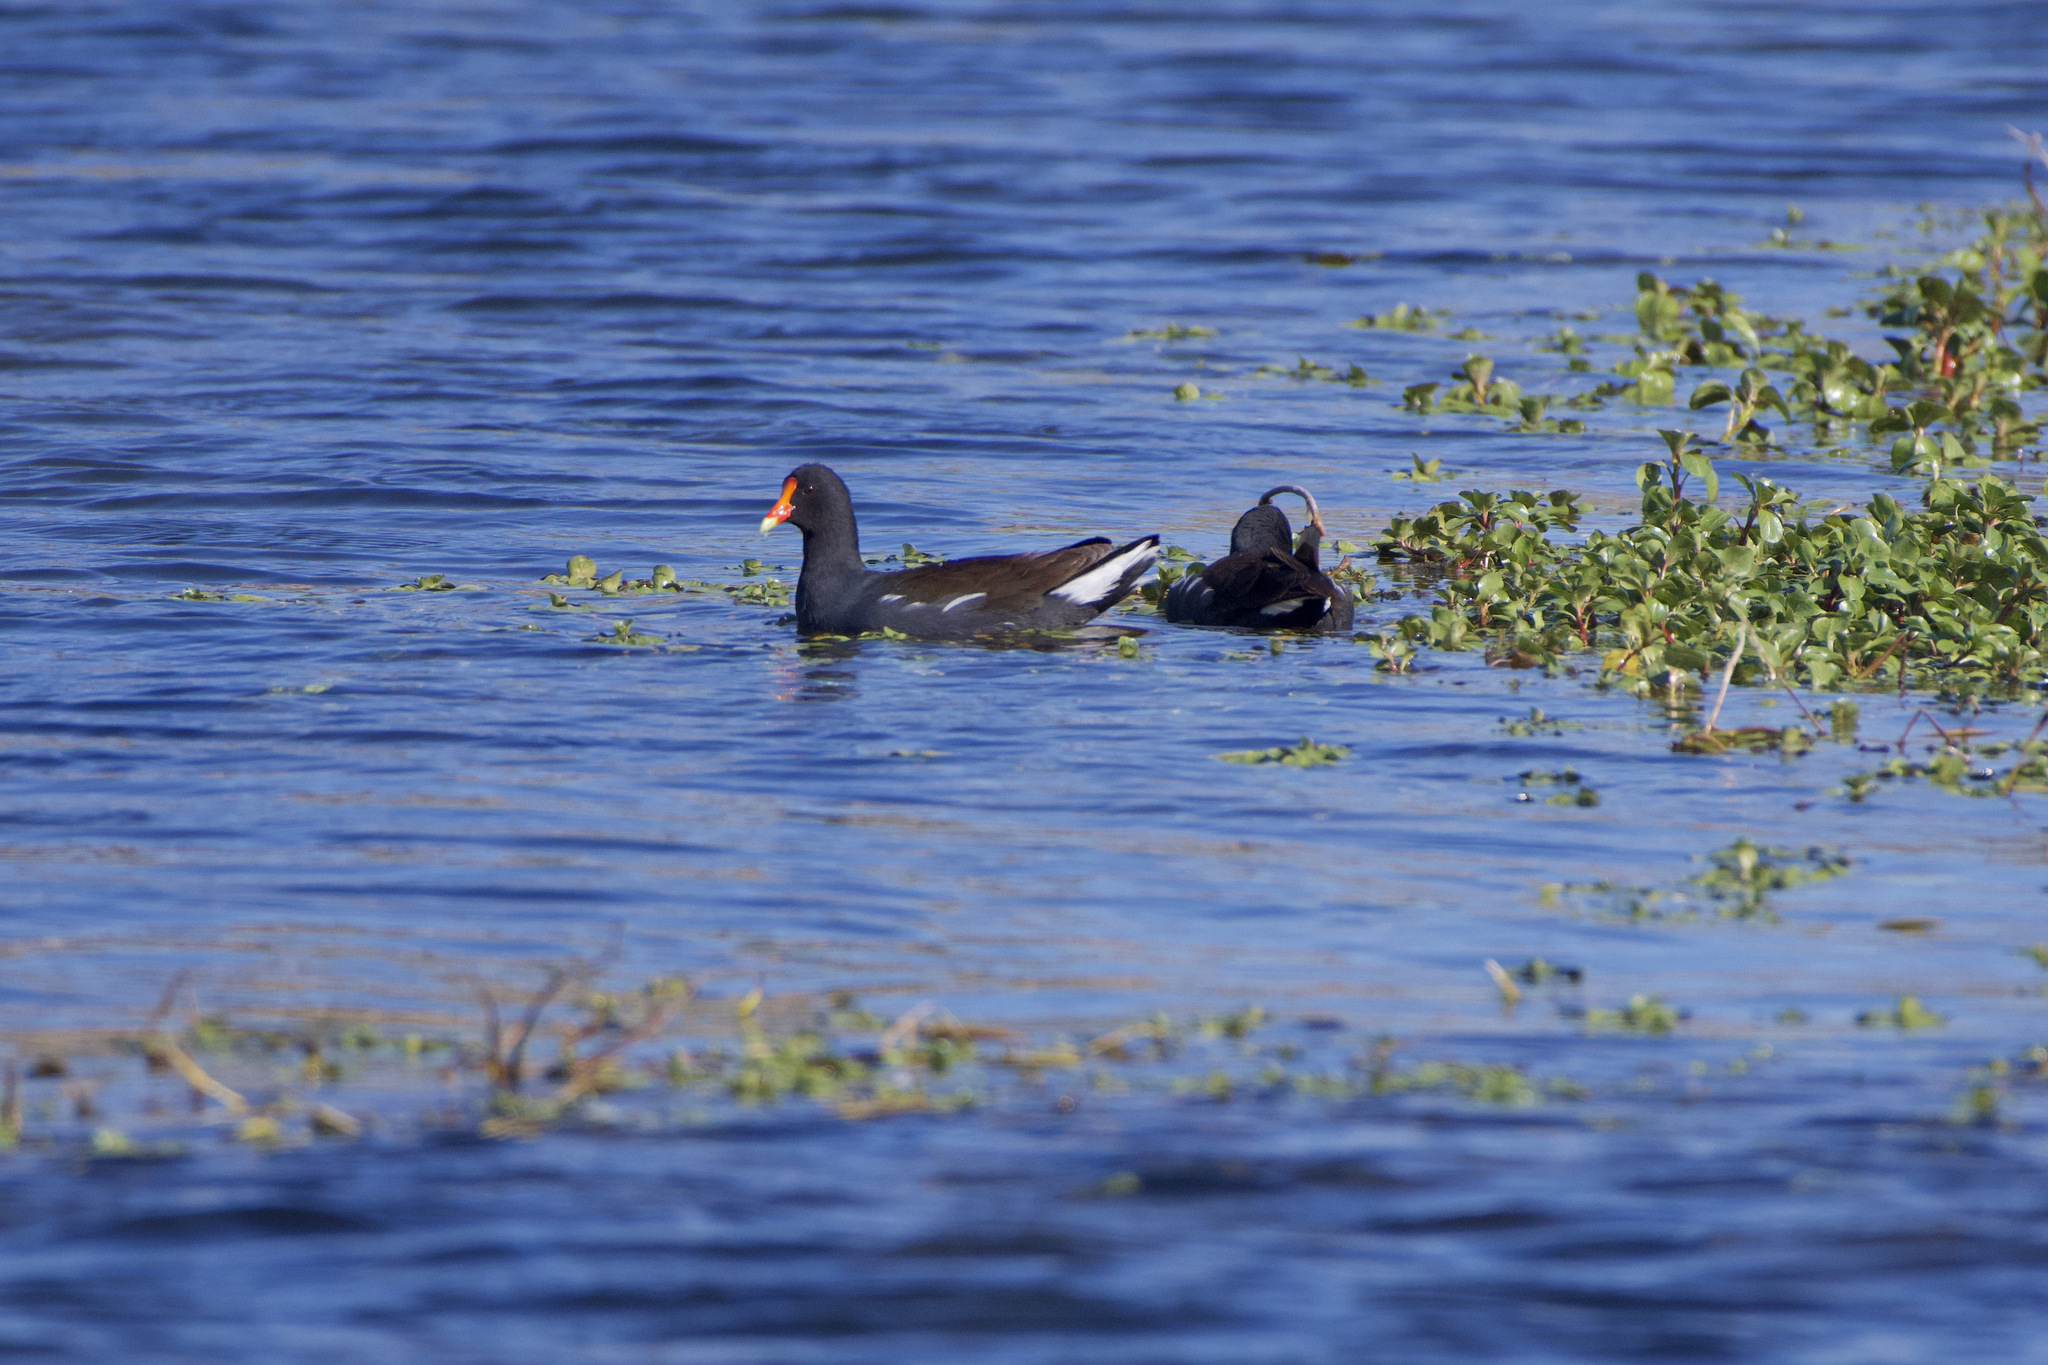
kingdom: Animalia
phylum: Chordata
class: Aves
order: Gruiformes
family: Rallidae
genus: Gallinula
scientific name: Gallinula chloropus
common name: Common moorhen
